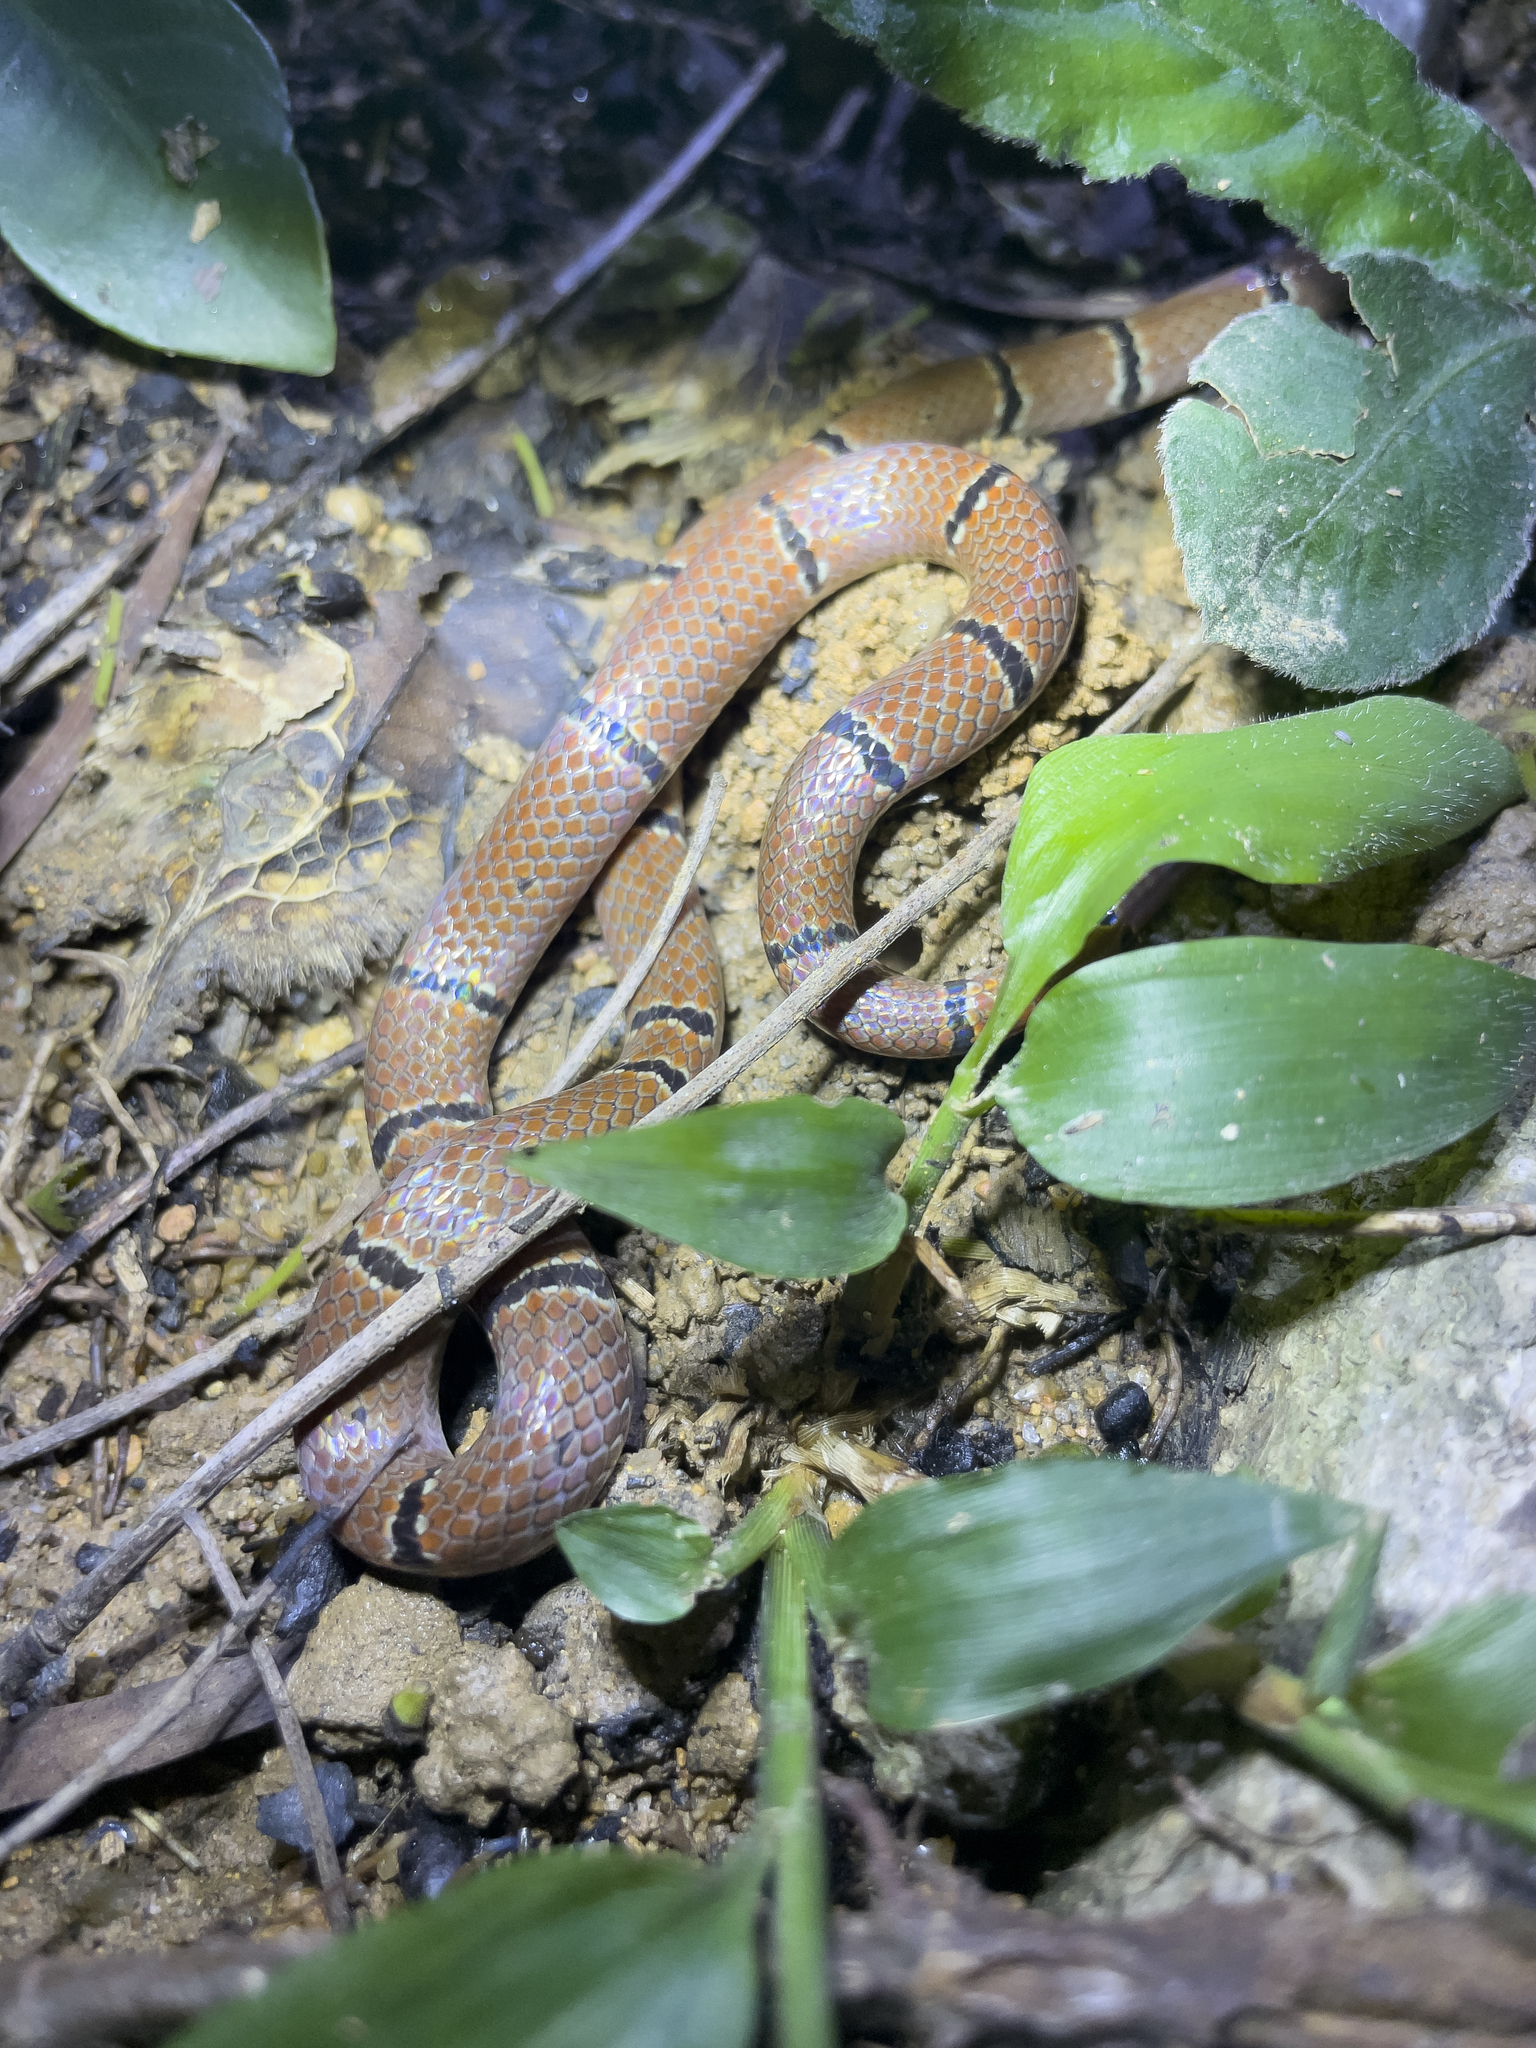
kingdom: Animalia
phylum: Chordata
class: Squamata
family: Elapidae
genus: Sinomicrurus
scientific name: Sinomicrurus
